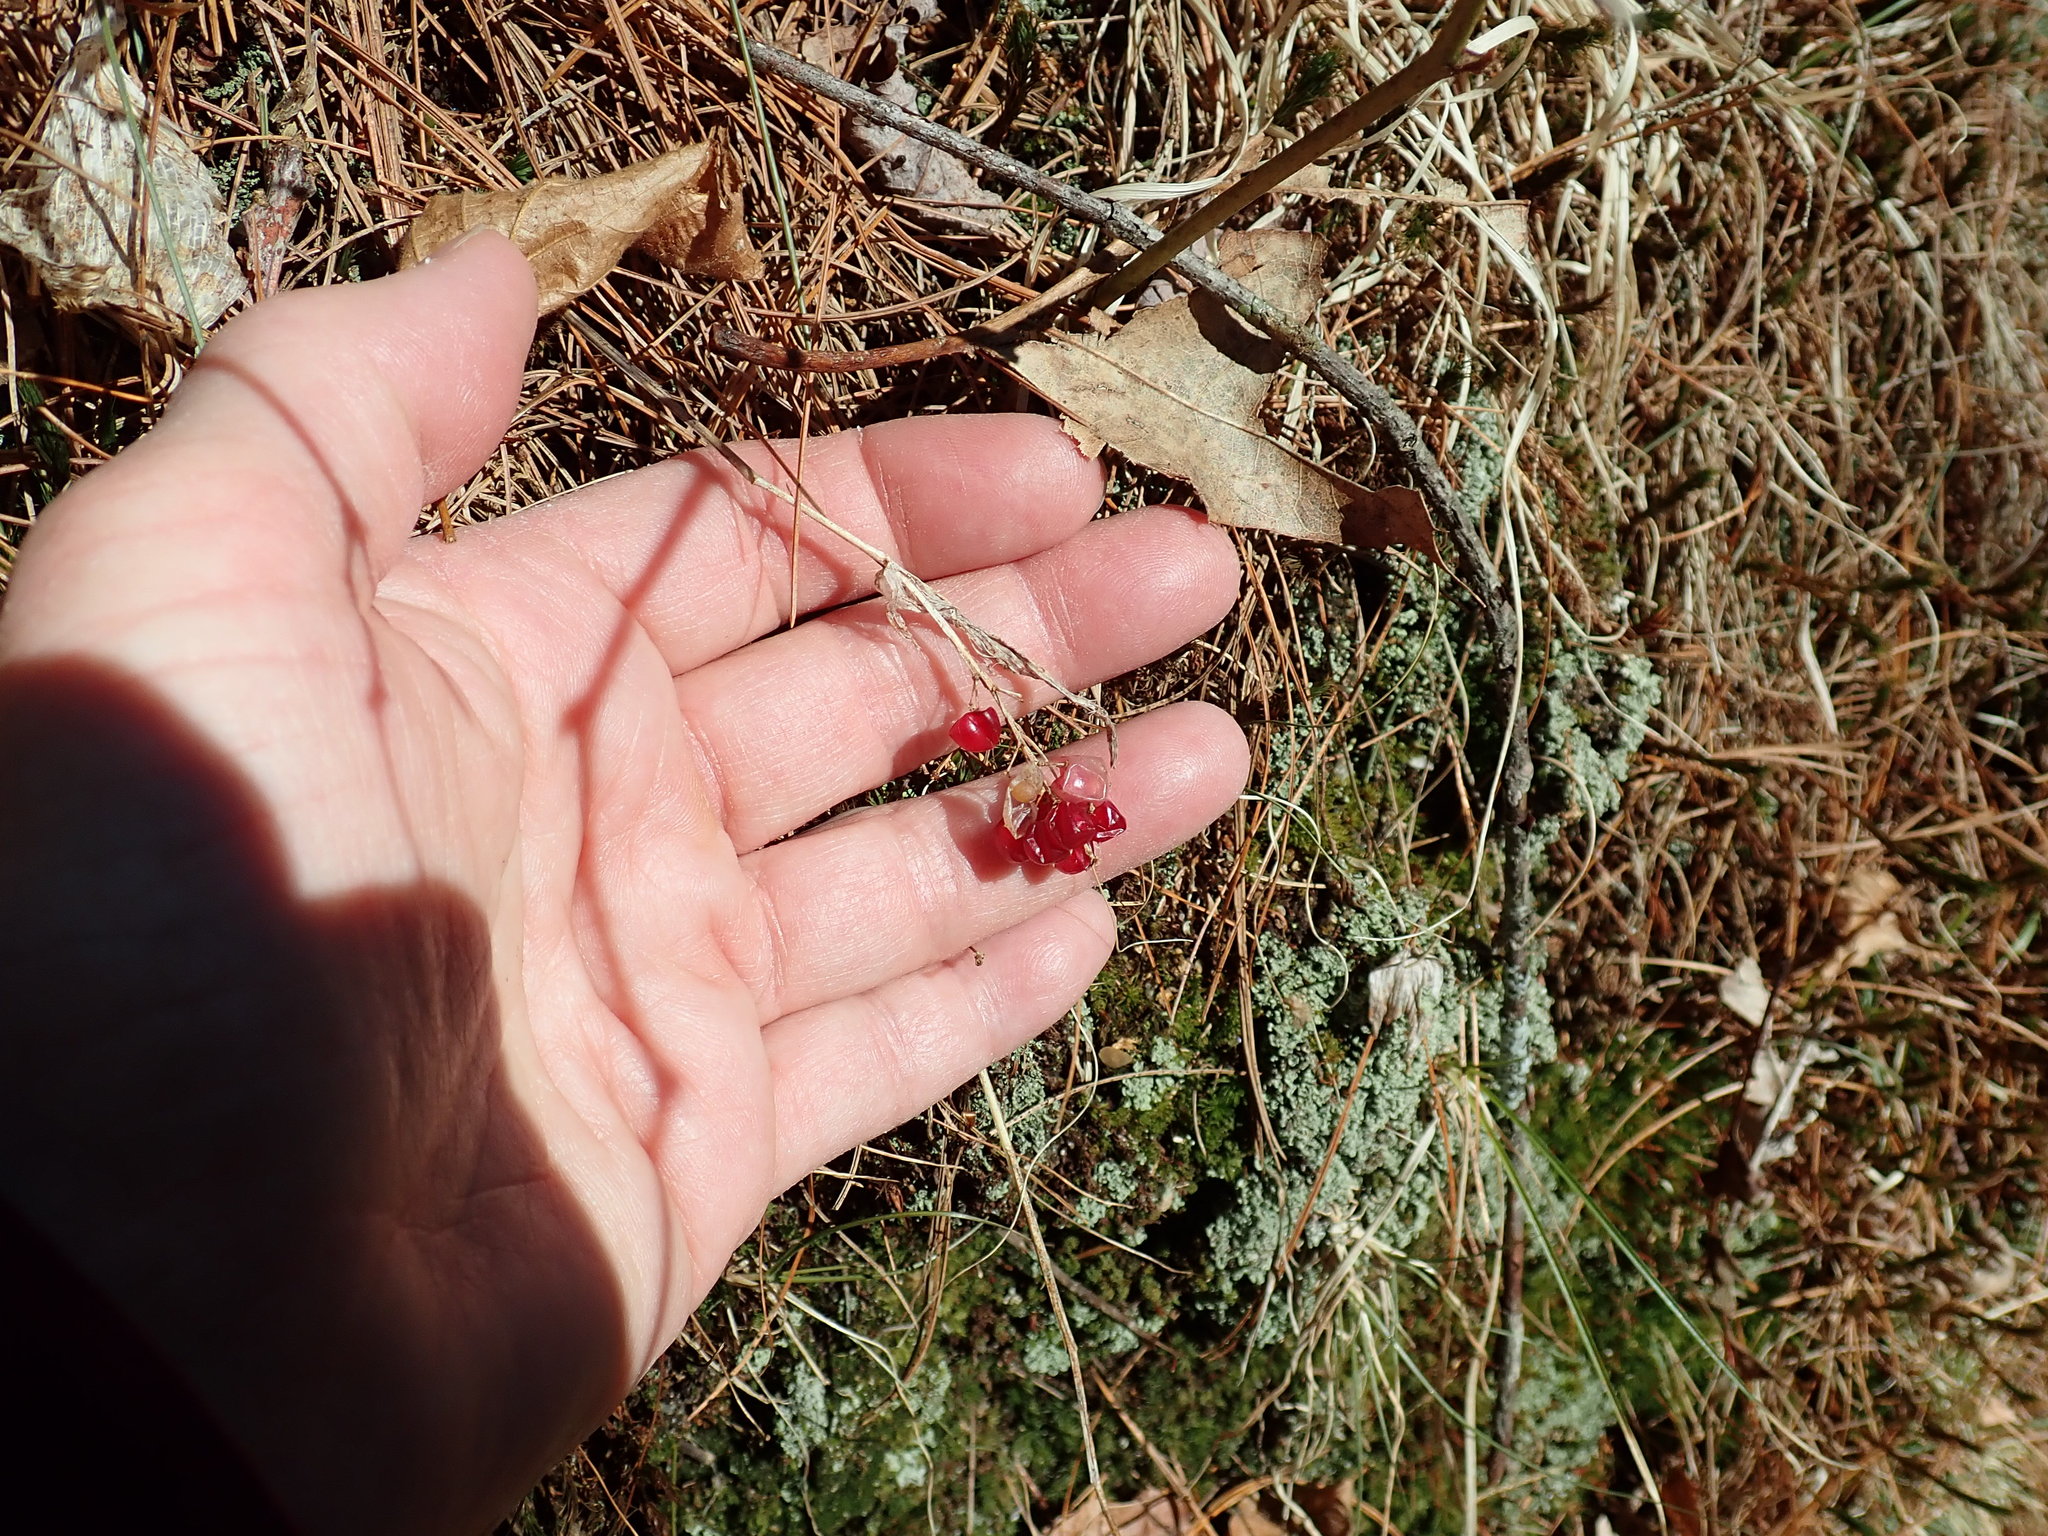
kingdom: Plantae
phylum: Tracheophyta
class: Liliopsida
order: Asparagales
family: Asparagaceae
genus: Maianthemum
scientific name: Maianthemum canadense
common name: False lily-of-the-valley
